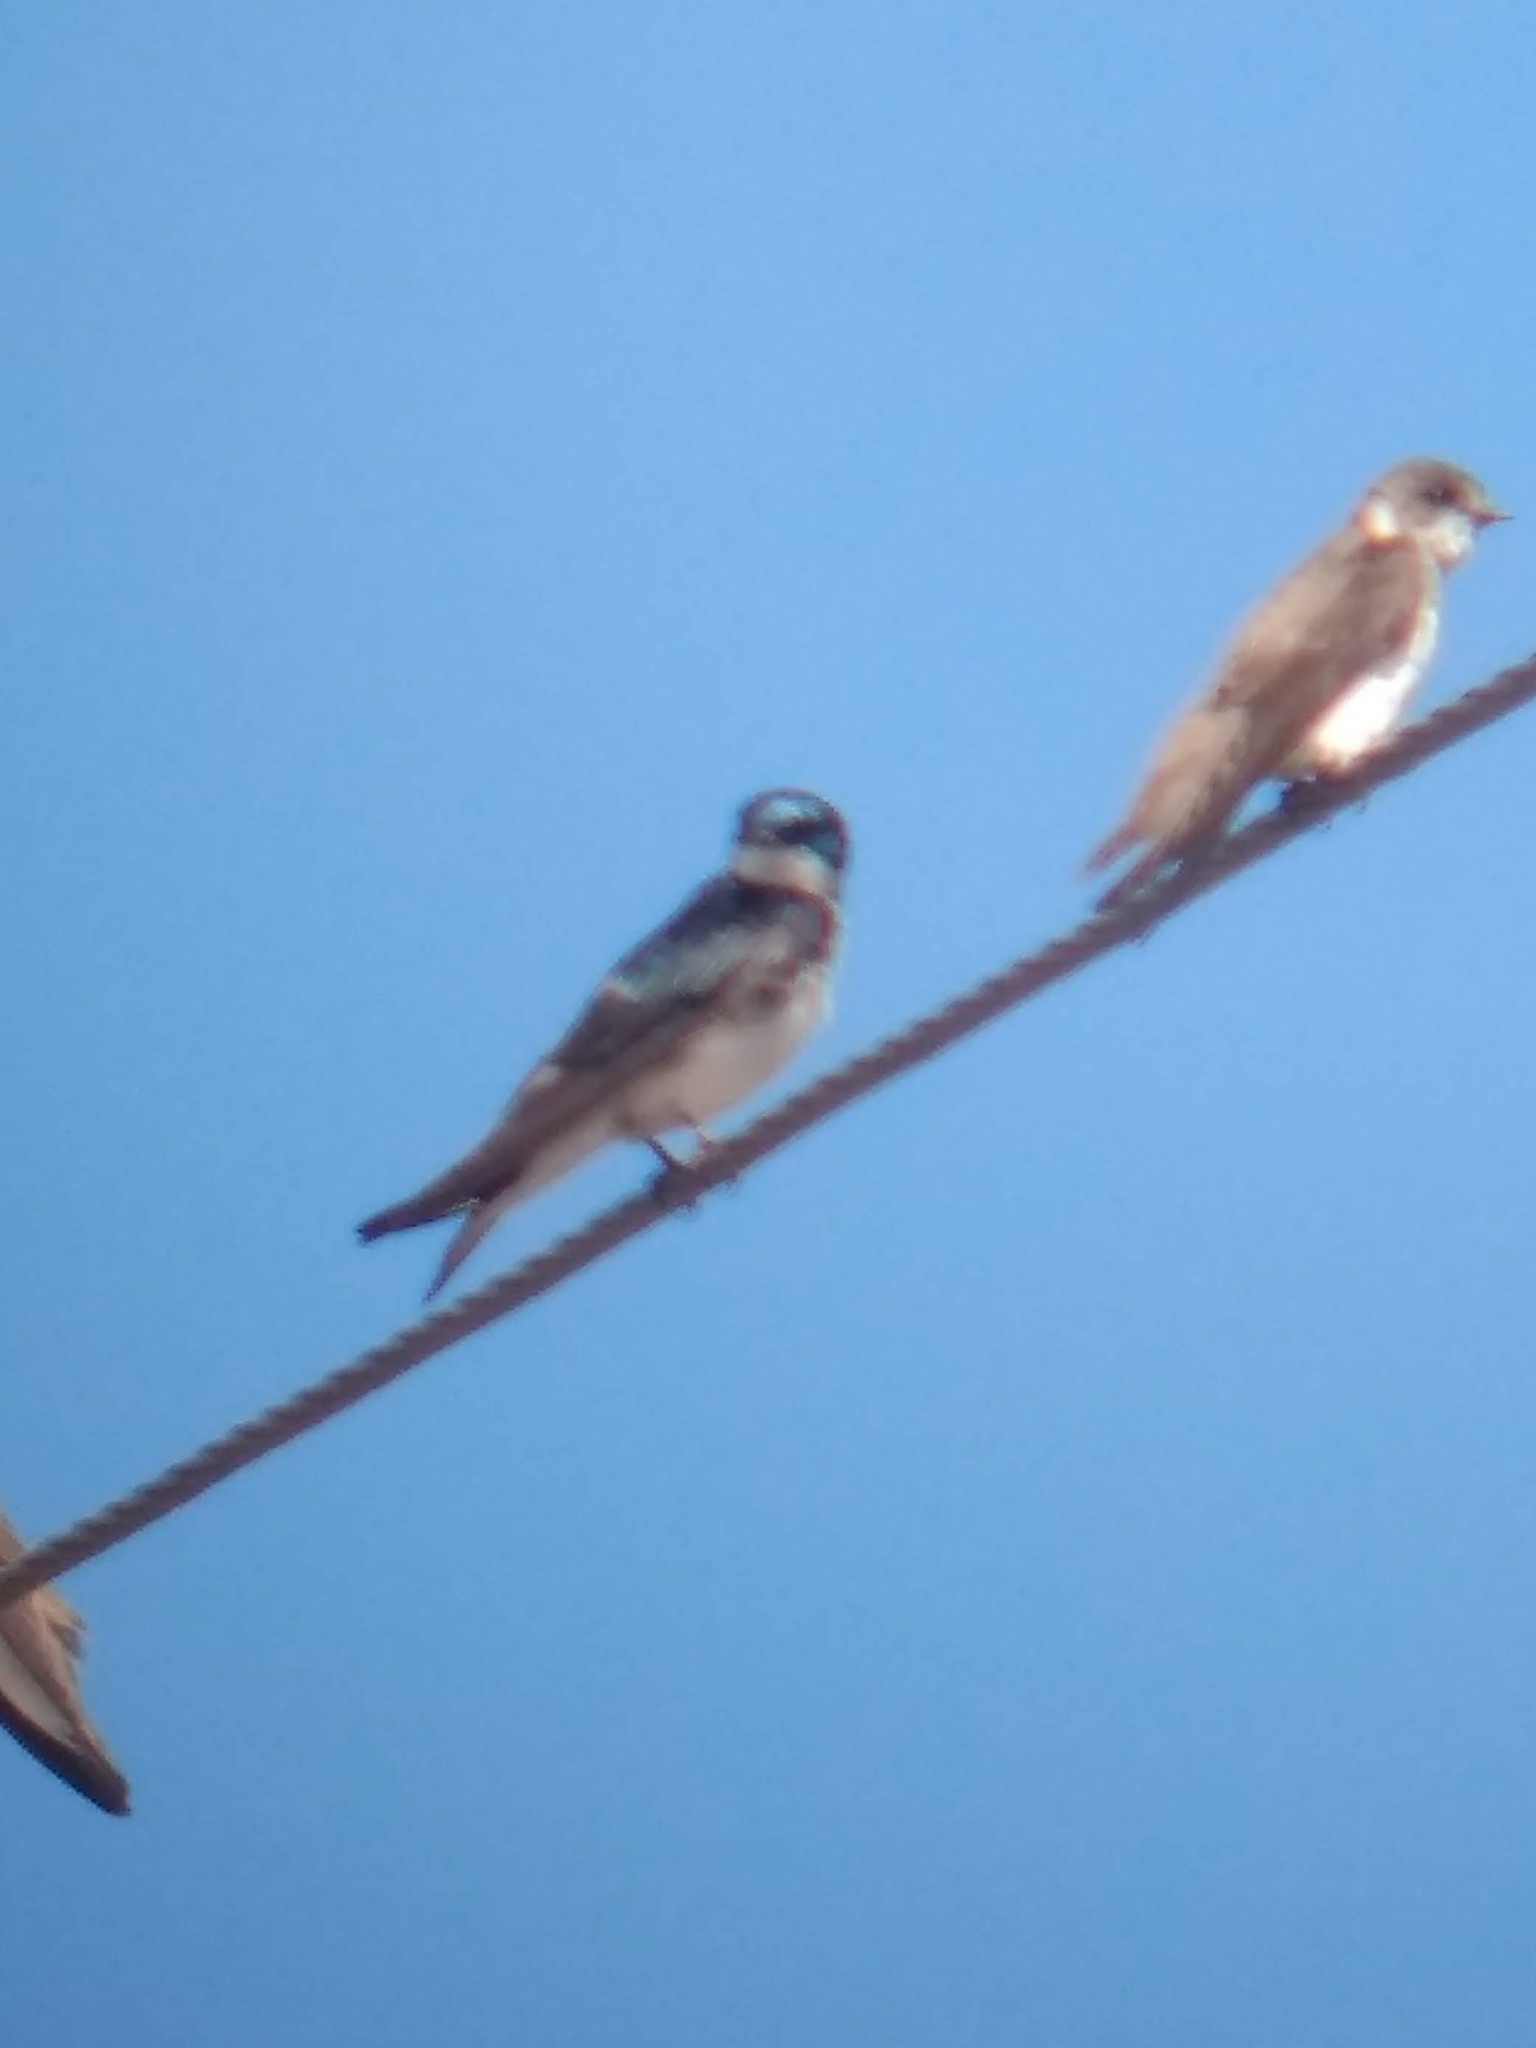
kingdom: Animalia
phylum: Chordata
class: Aves
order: Passeriformes
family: Hirundinidae
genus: Tachycineta
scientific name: Tachycineta bicolor
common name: Tree swallow
